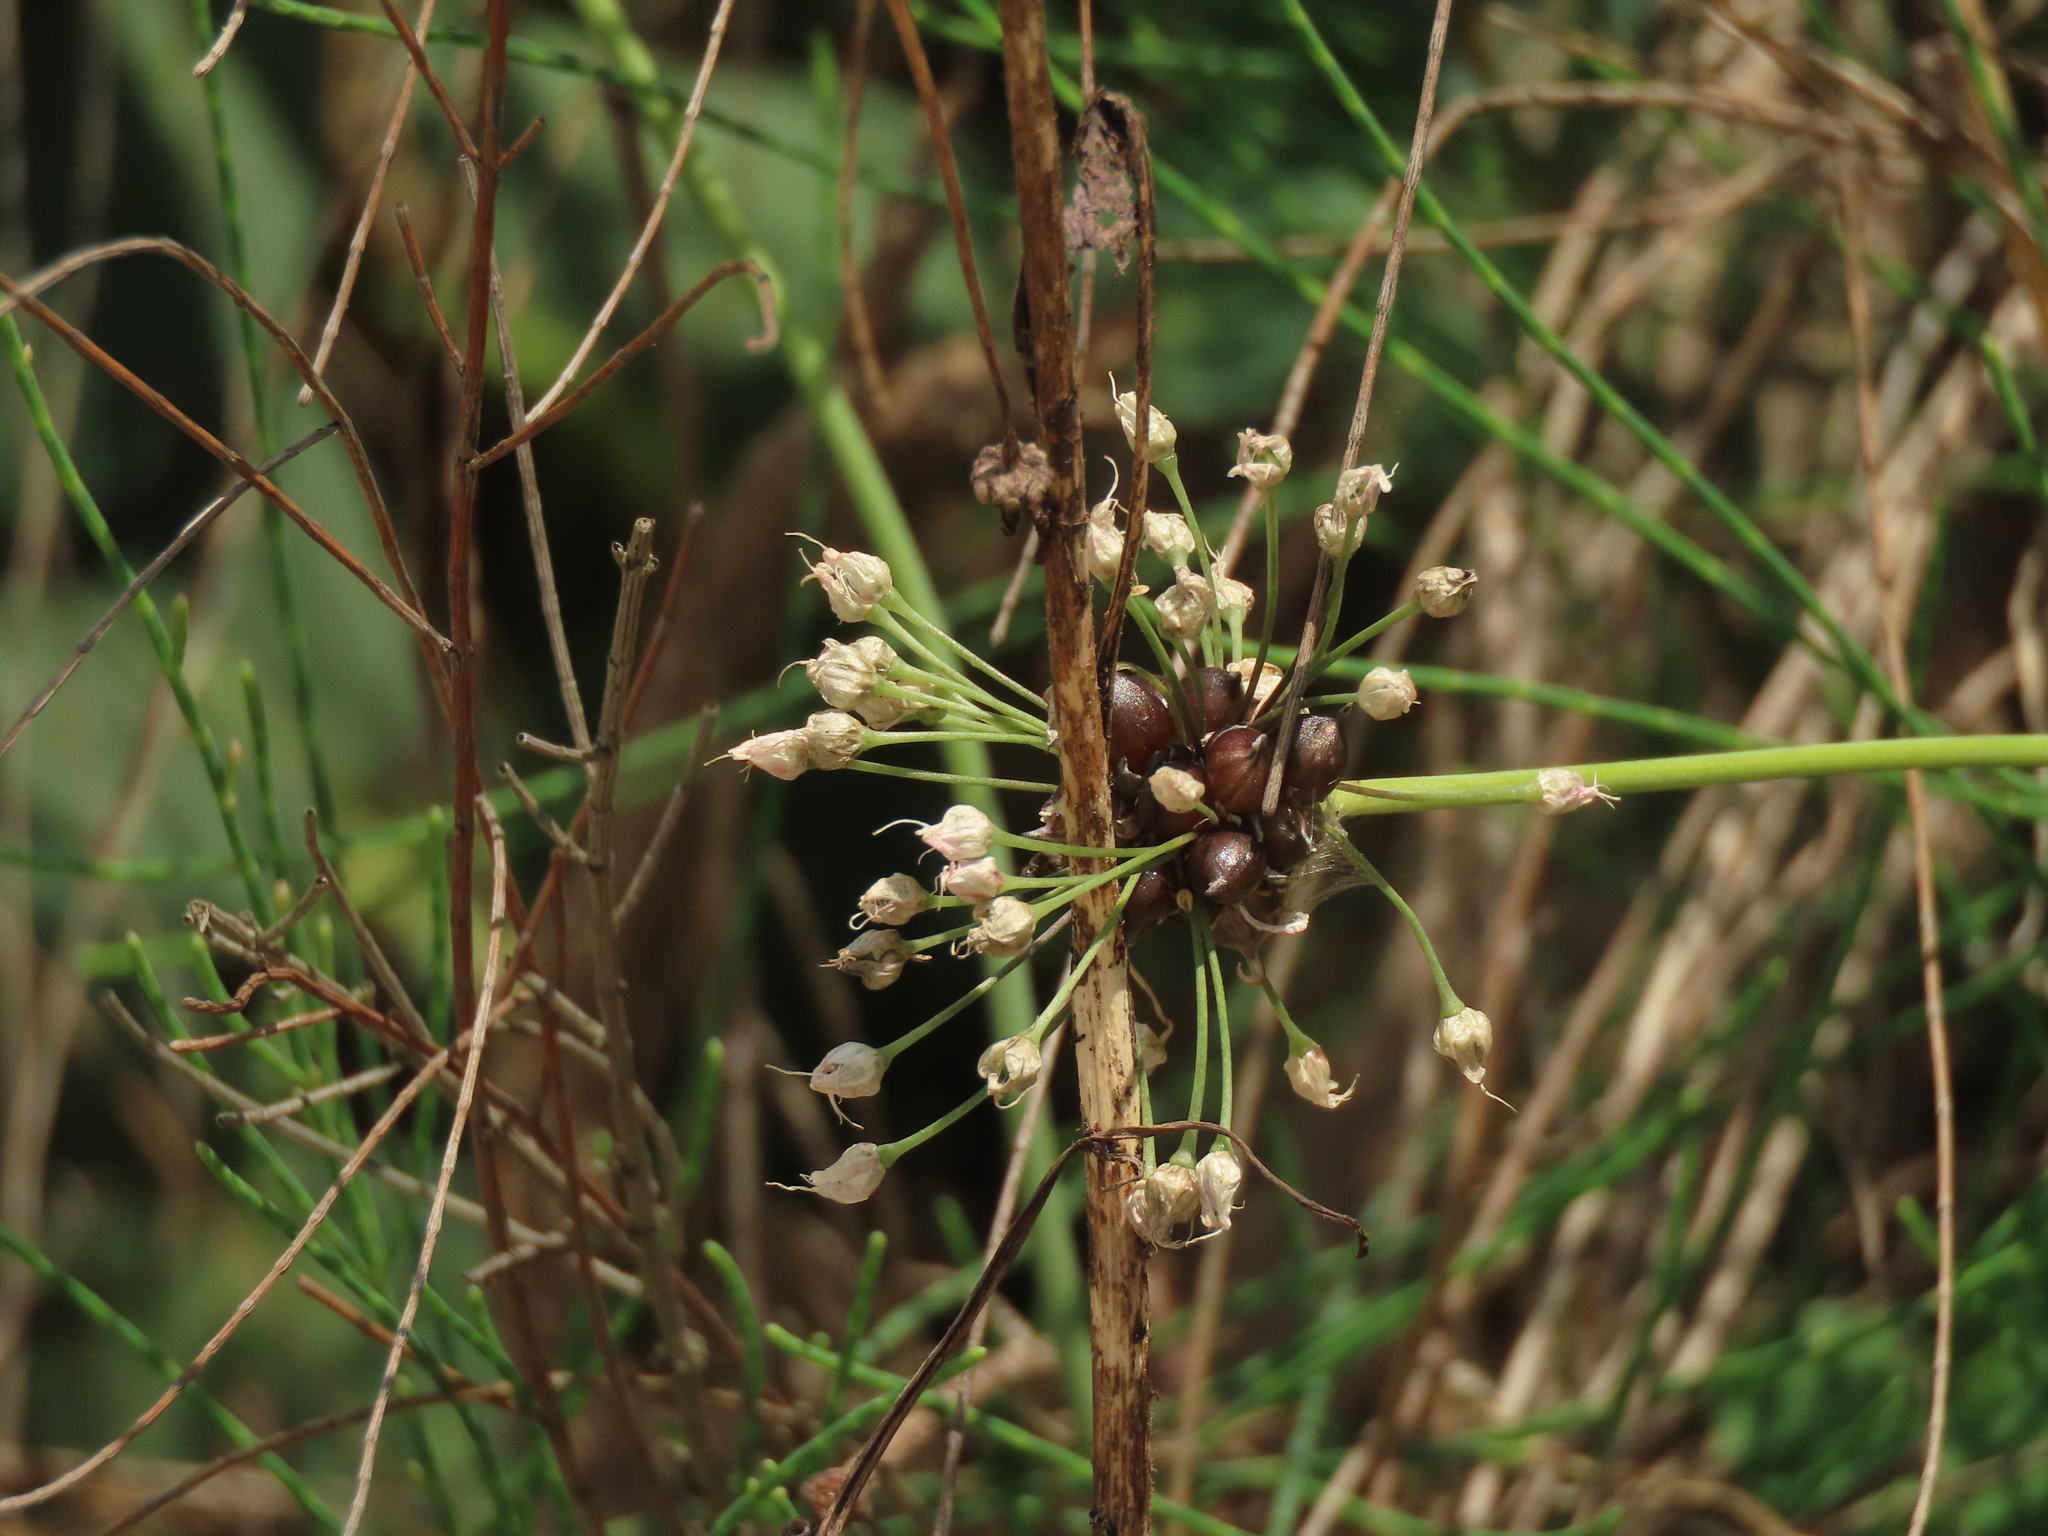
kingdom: Plantae
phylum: Tracheophyta
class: Liliopsida
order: Asparagales
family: Amaryllidaceae
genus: Allium
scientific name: Allium macrostemon
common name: Chinese garlic
